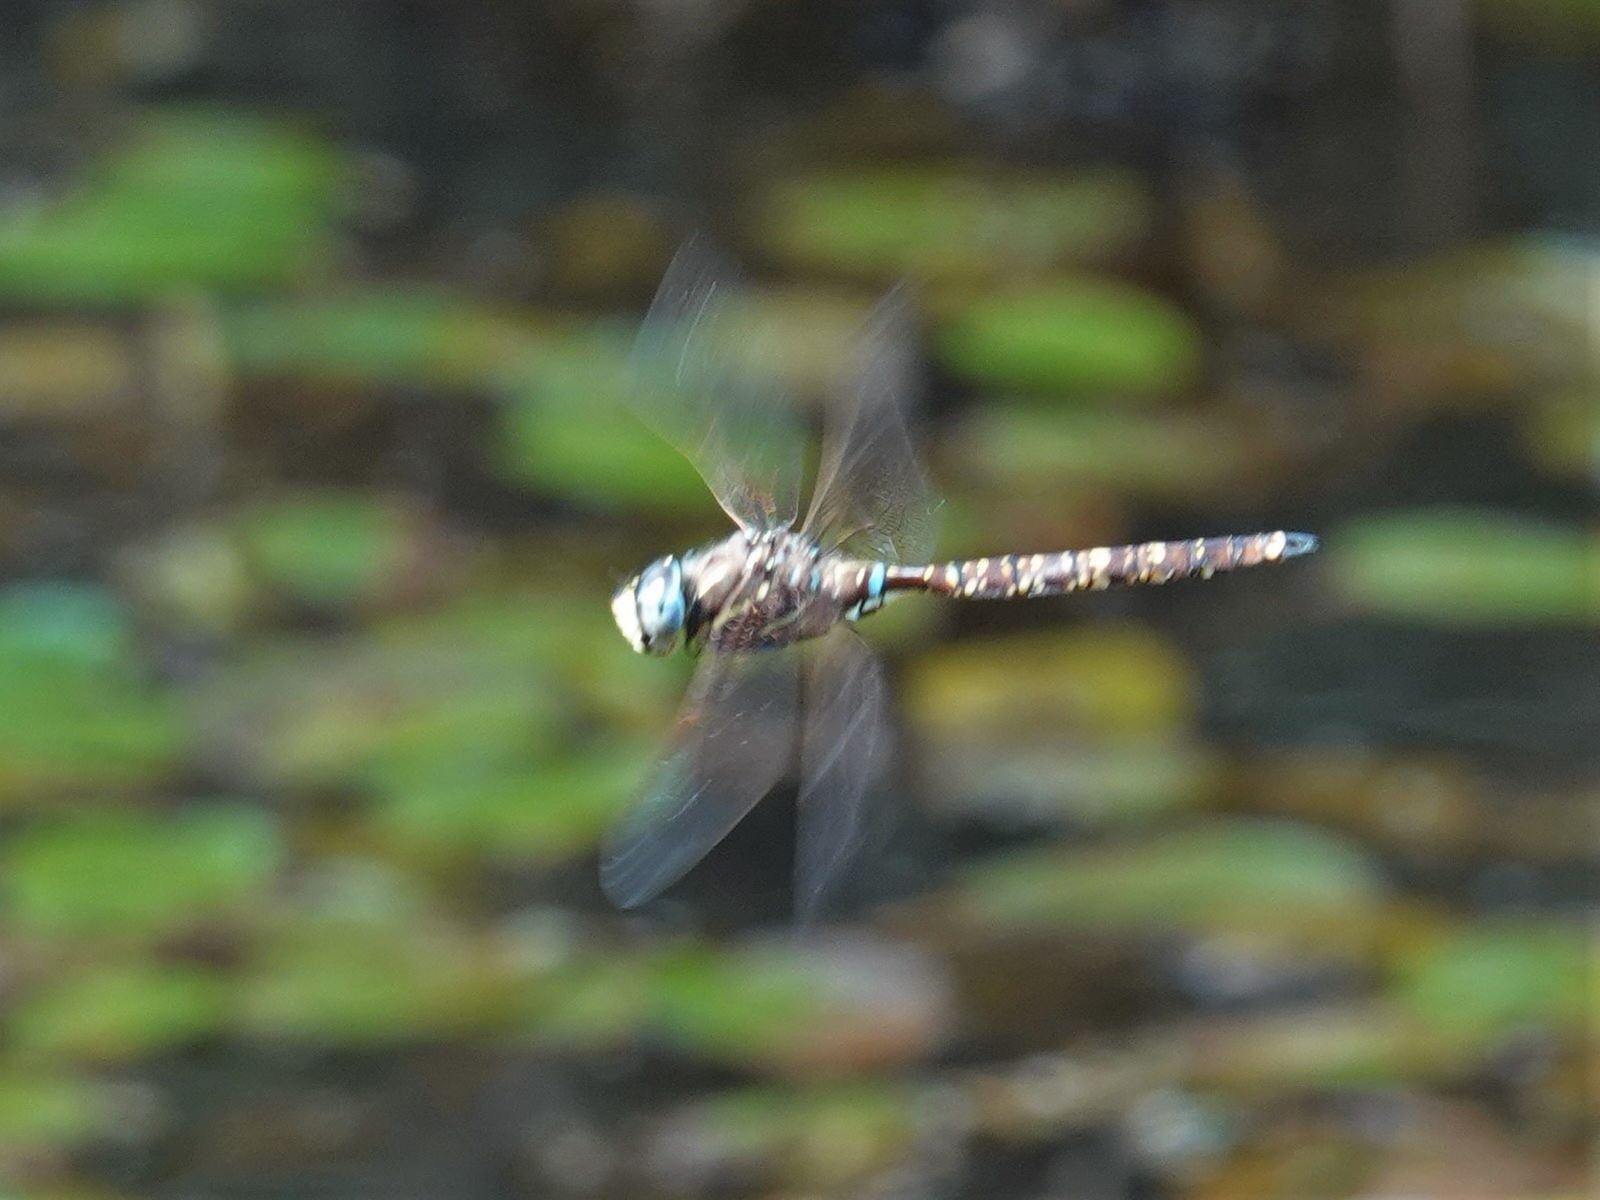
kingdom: Animalia
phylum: Arthropoda
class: Insecta
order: Odonata
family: Aeshnidae
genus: Aeshna
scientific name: Aeshna brevistyla
